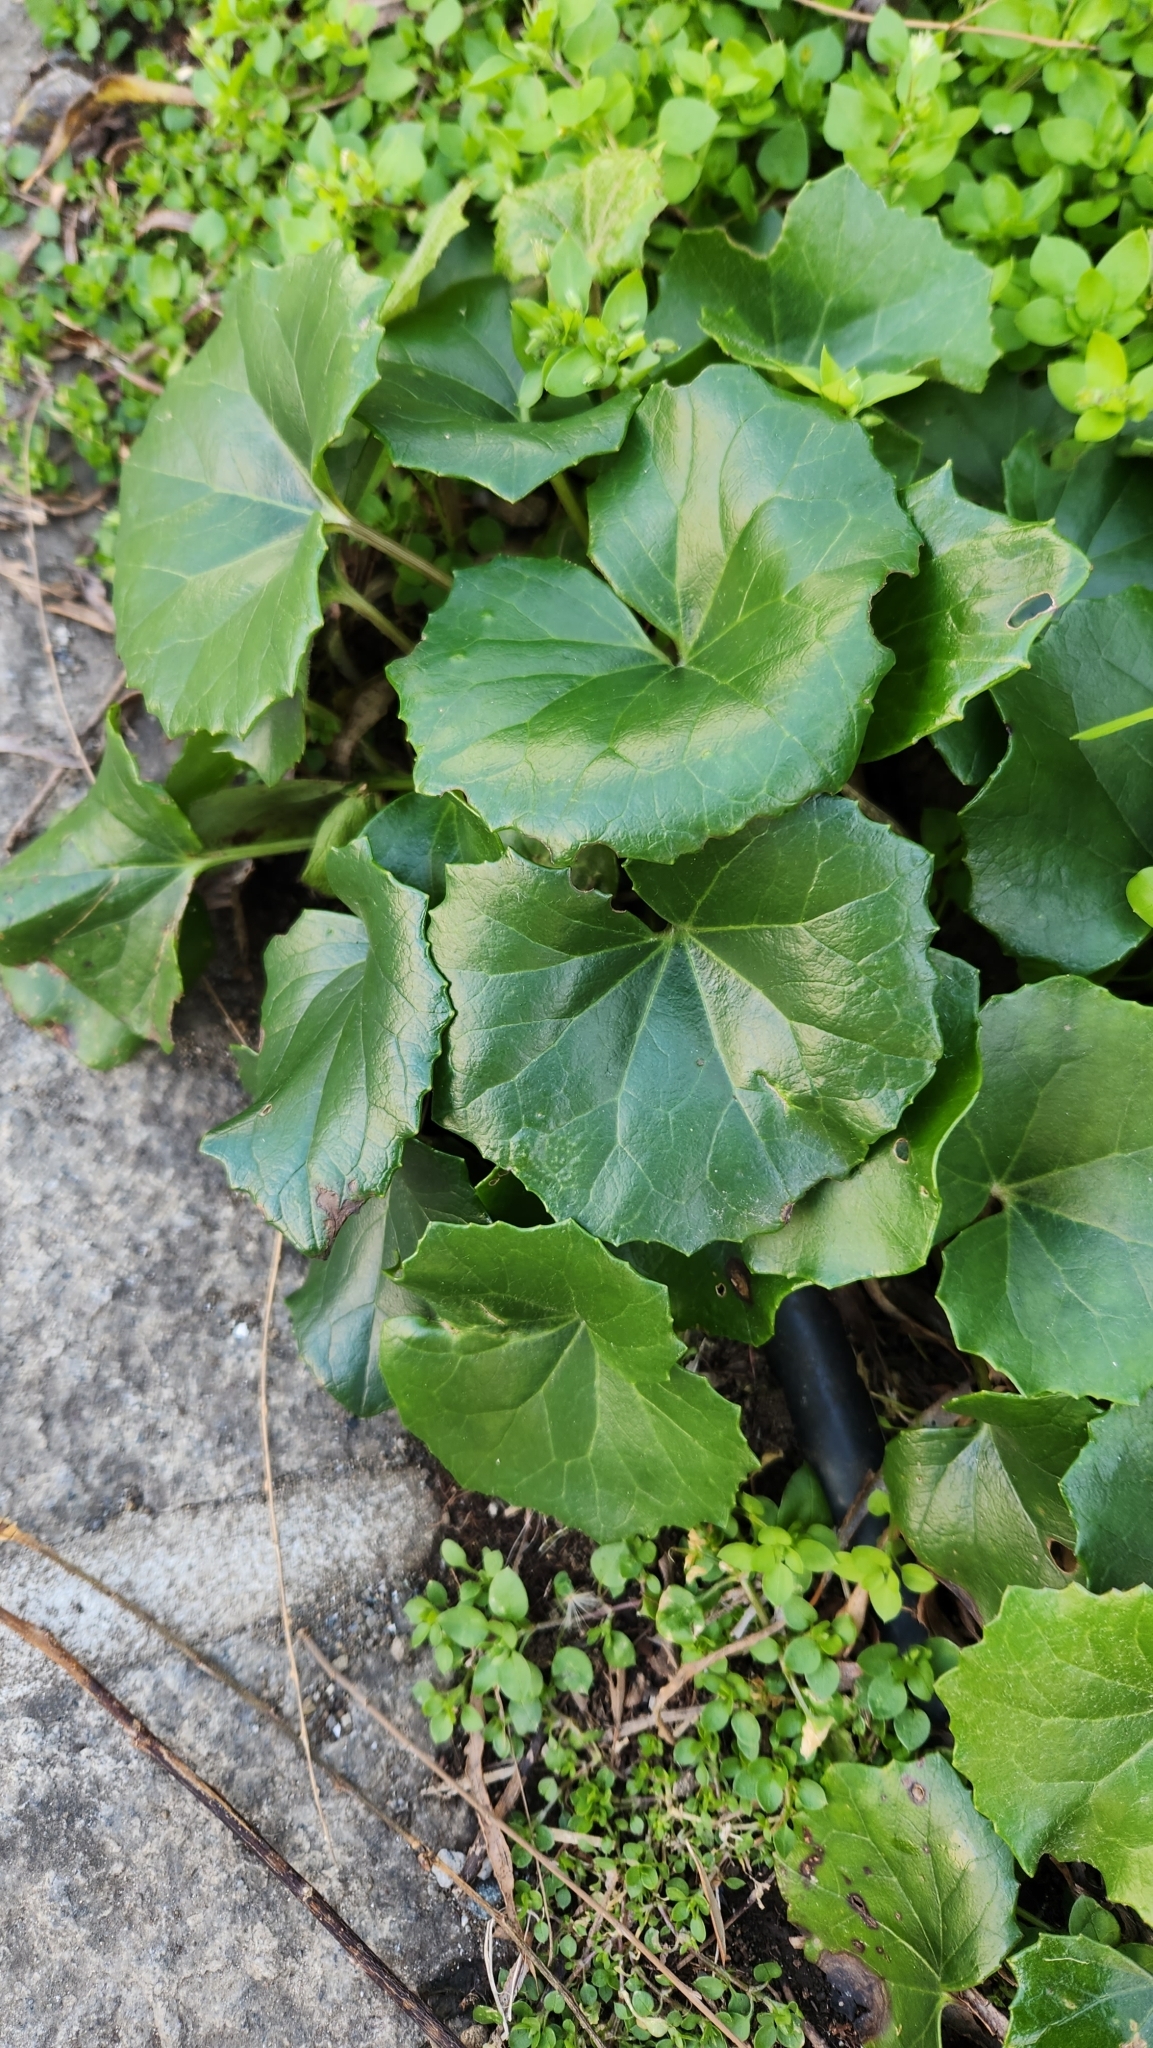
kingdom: Plantae
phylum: Tracheophyta
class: Magnoliopsida
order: Asterales
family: Asteraceae
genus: Farfugium
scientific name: Farfugium japonicum
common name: Leopardplant
